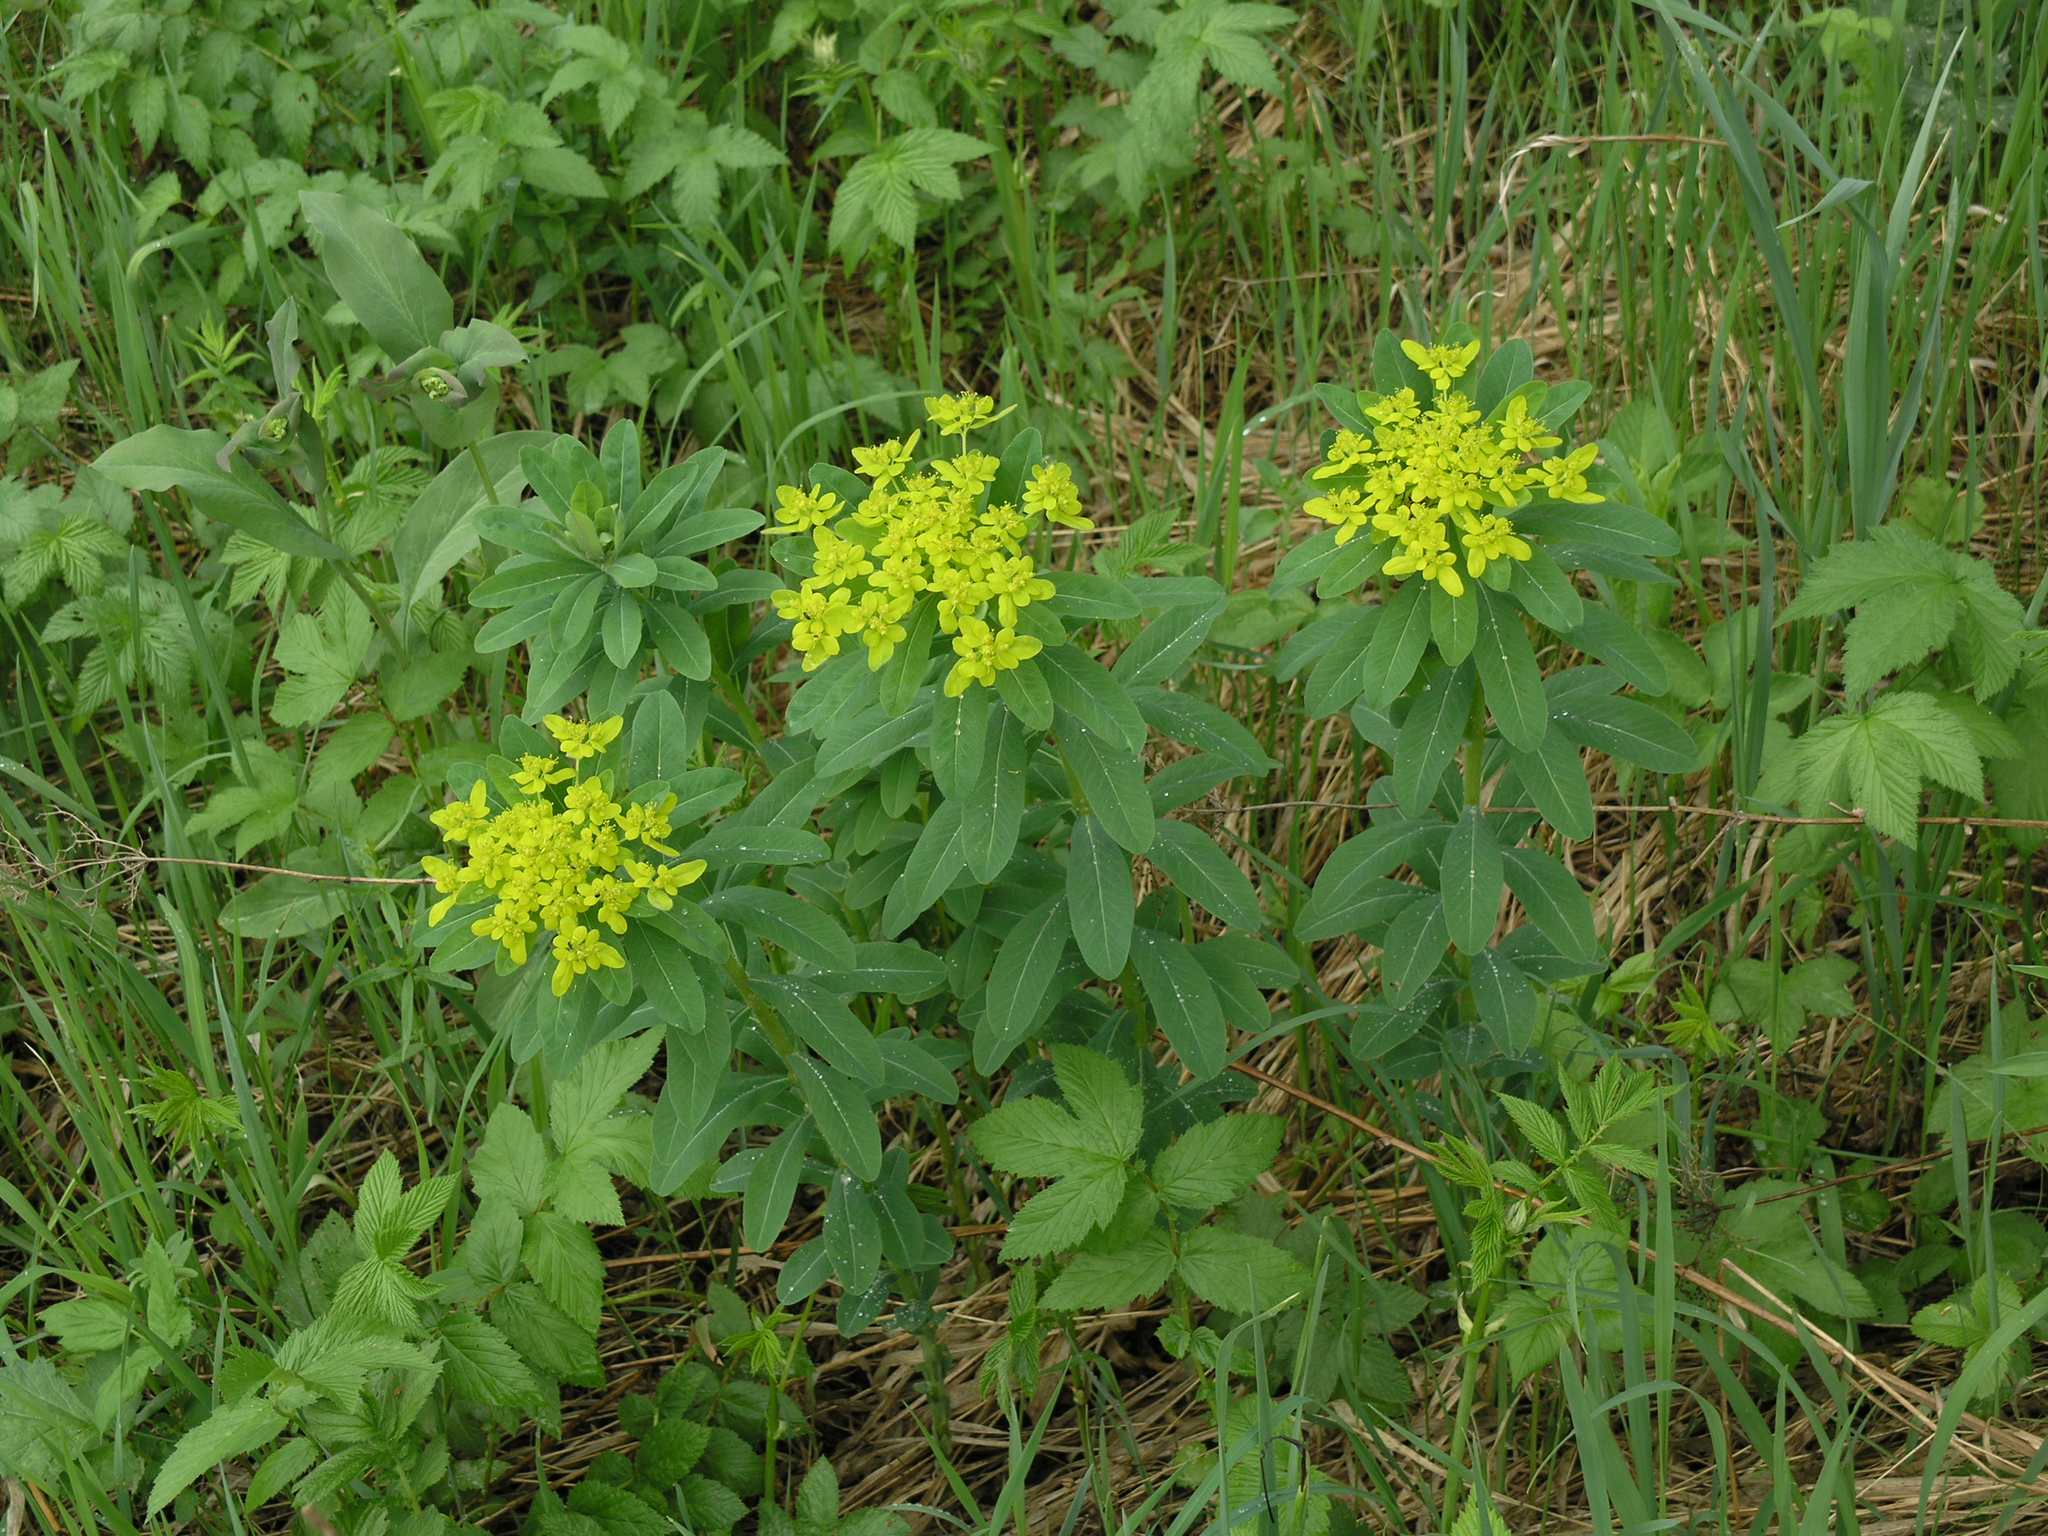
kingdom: Plantae
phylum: Tracheophyta
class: Magnoliopsida
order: Malpighiales
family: Euphorbiaceae
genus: Euphorbia
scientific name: Euphorbia pilosa
